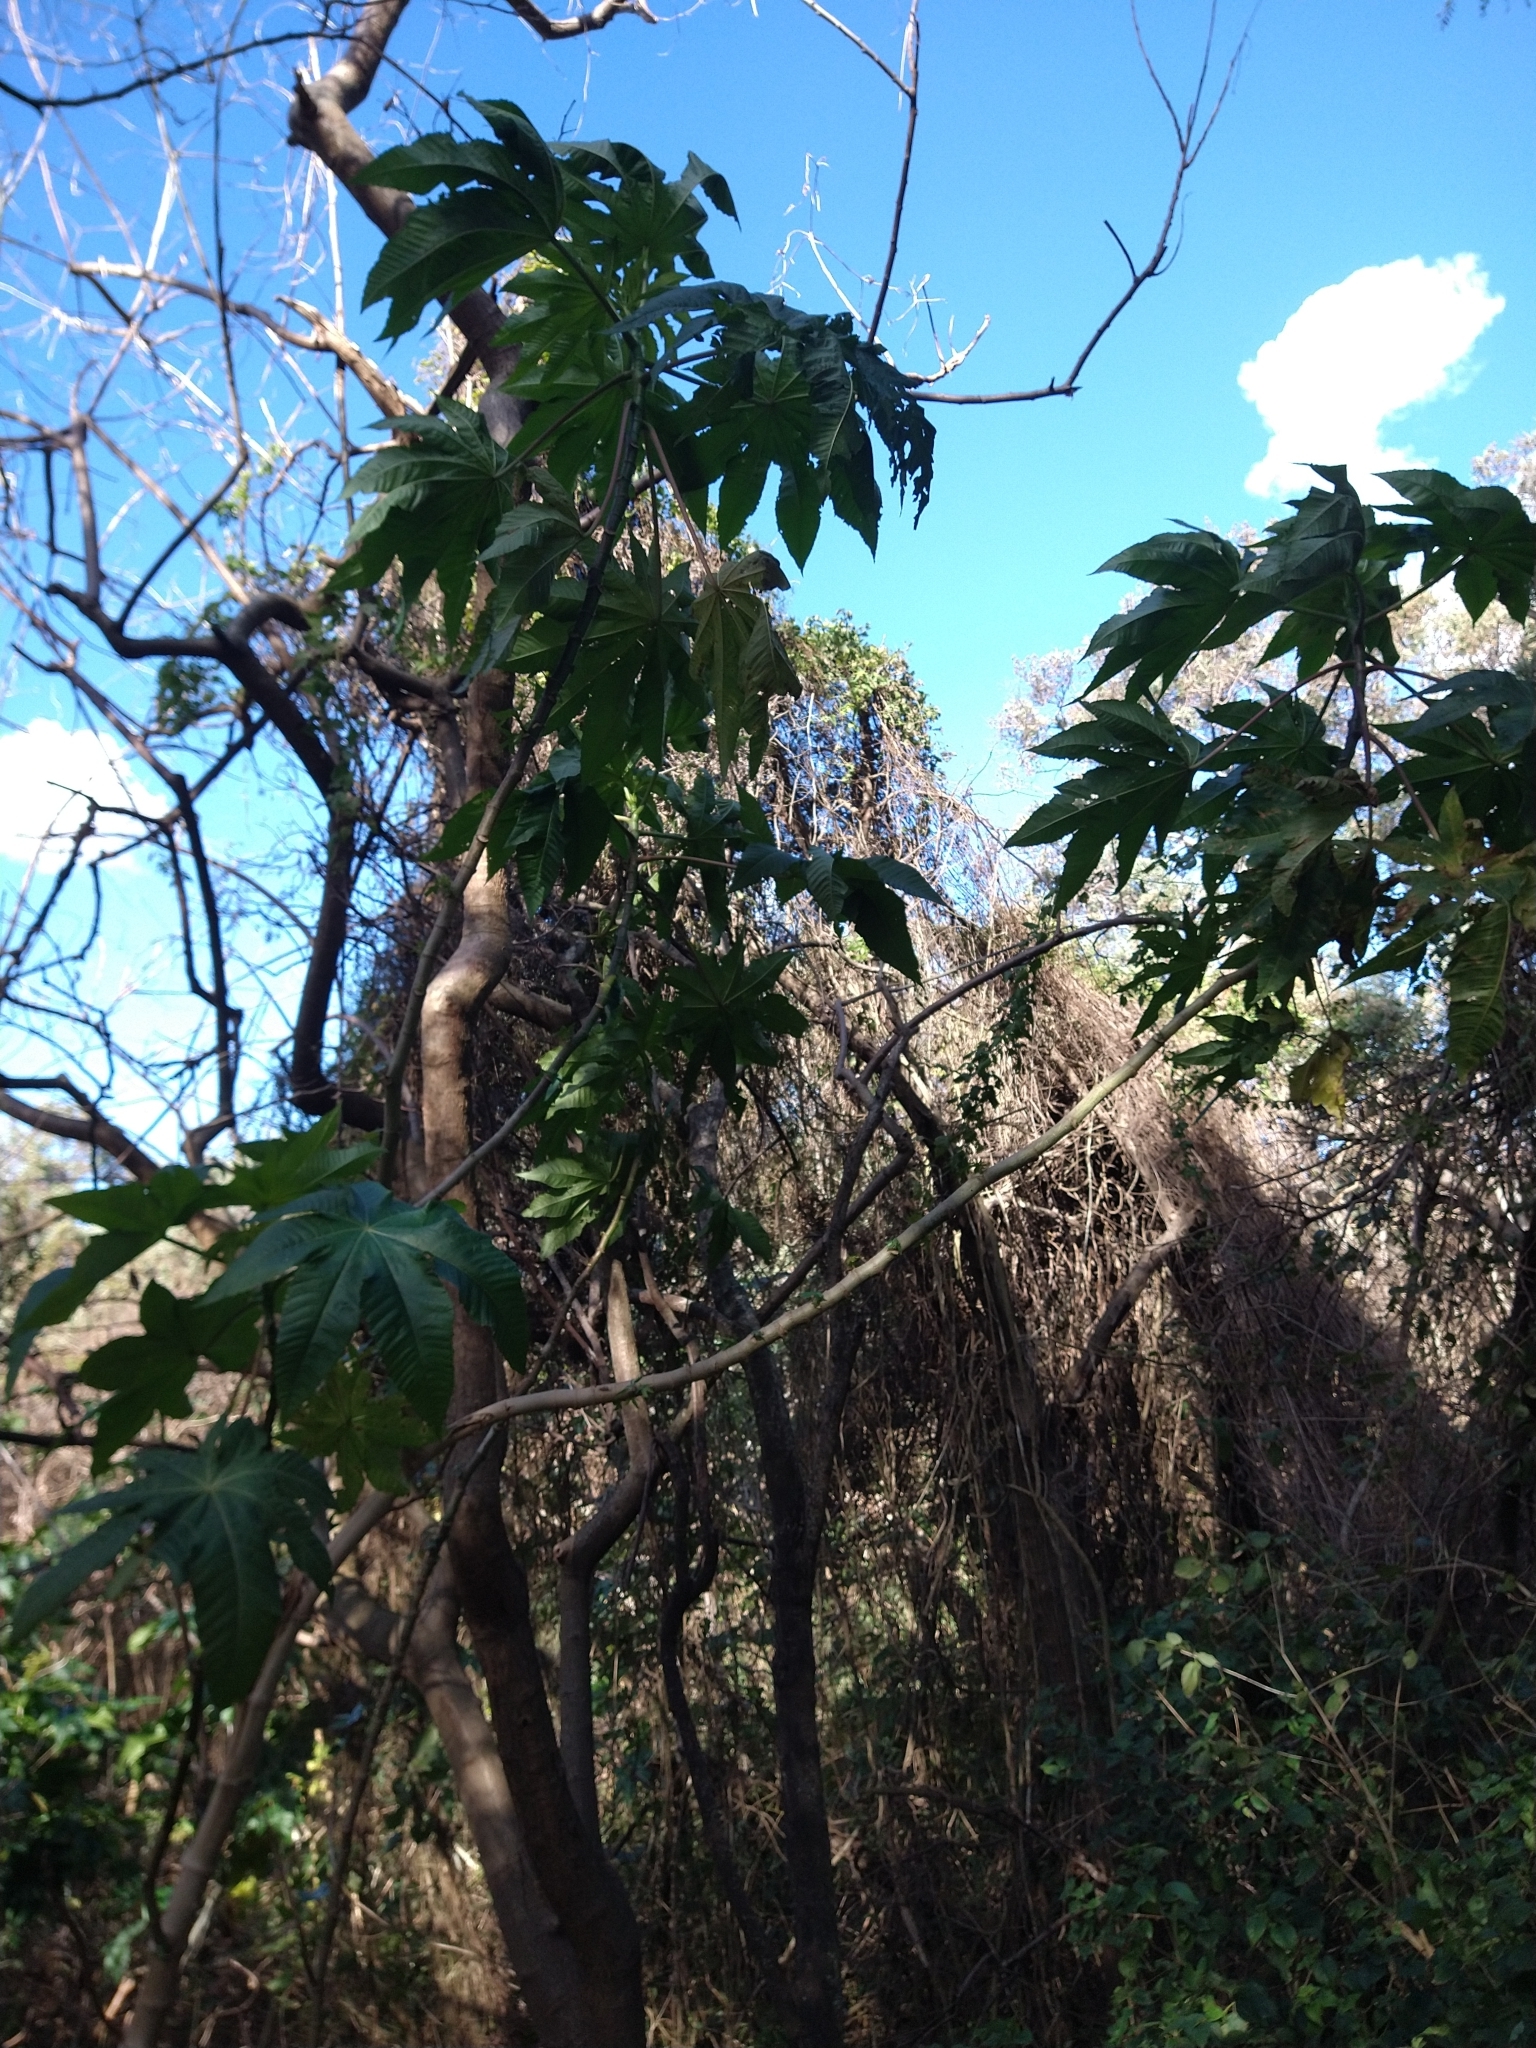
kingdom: Plantae
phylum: Tracheophyta
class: Magnoliopsida
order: Malpighiales
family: Euphorbiaceae
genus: Ricinus
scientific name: Ricinus communis
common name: Castor-oil-plant
